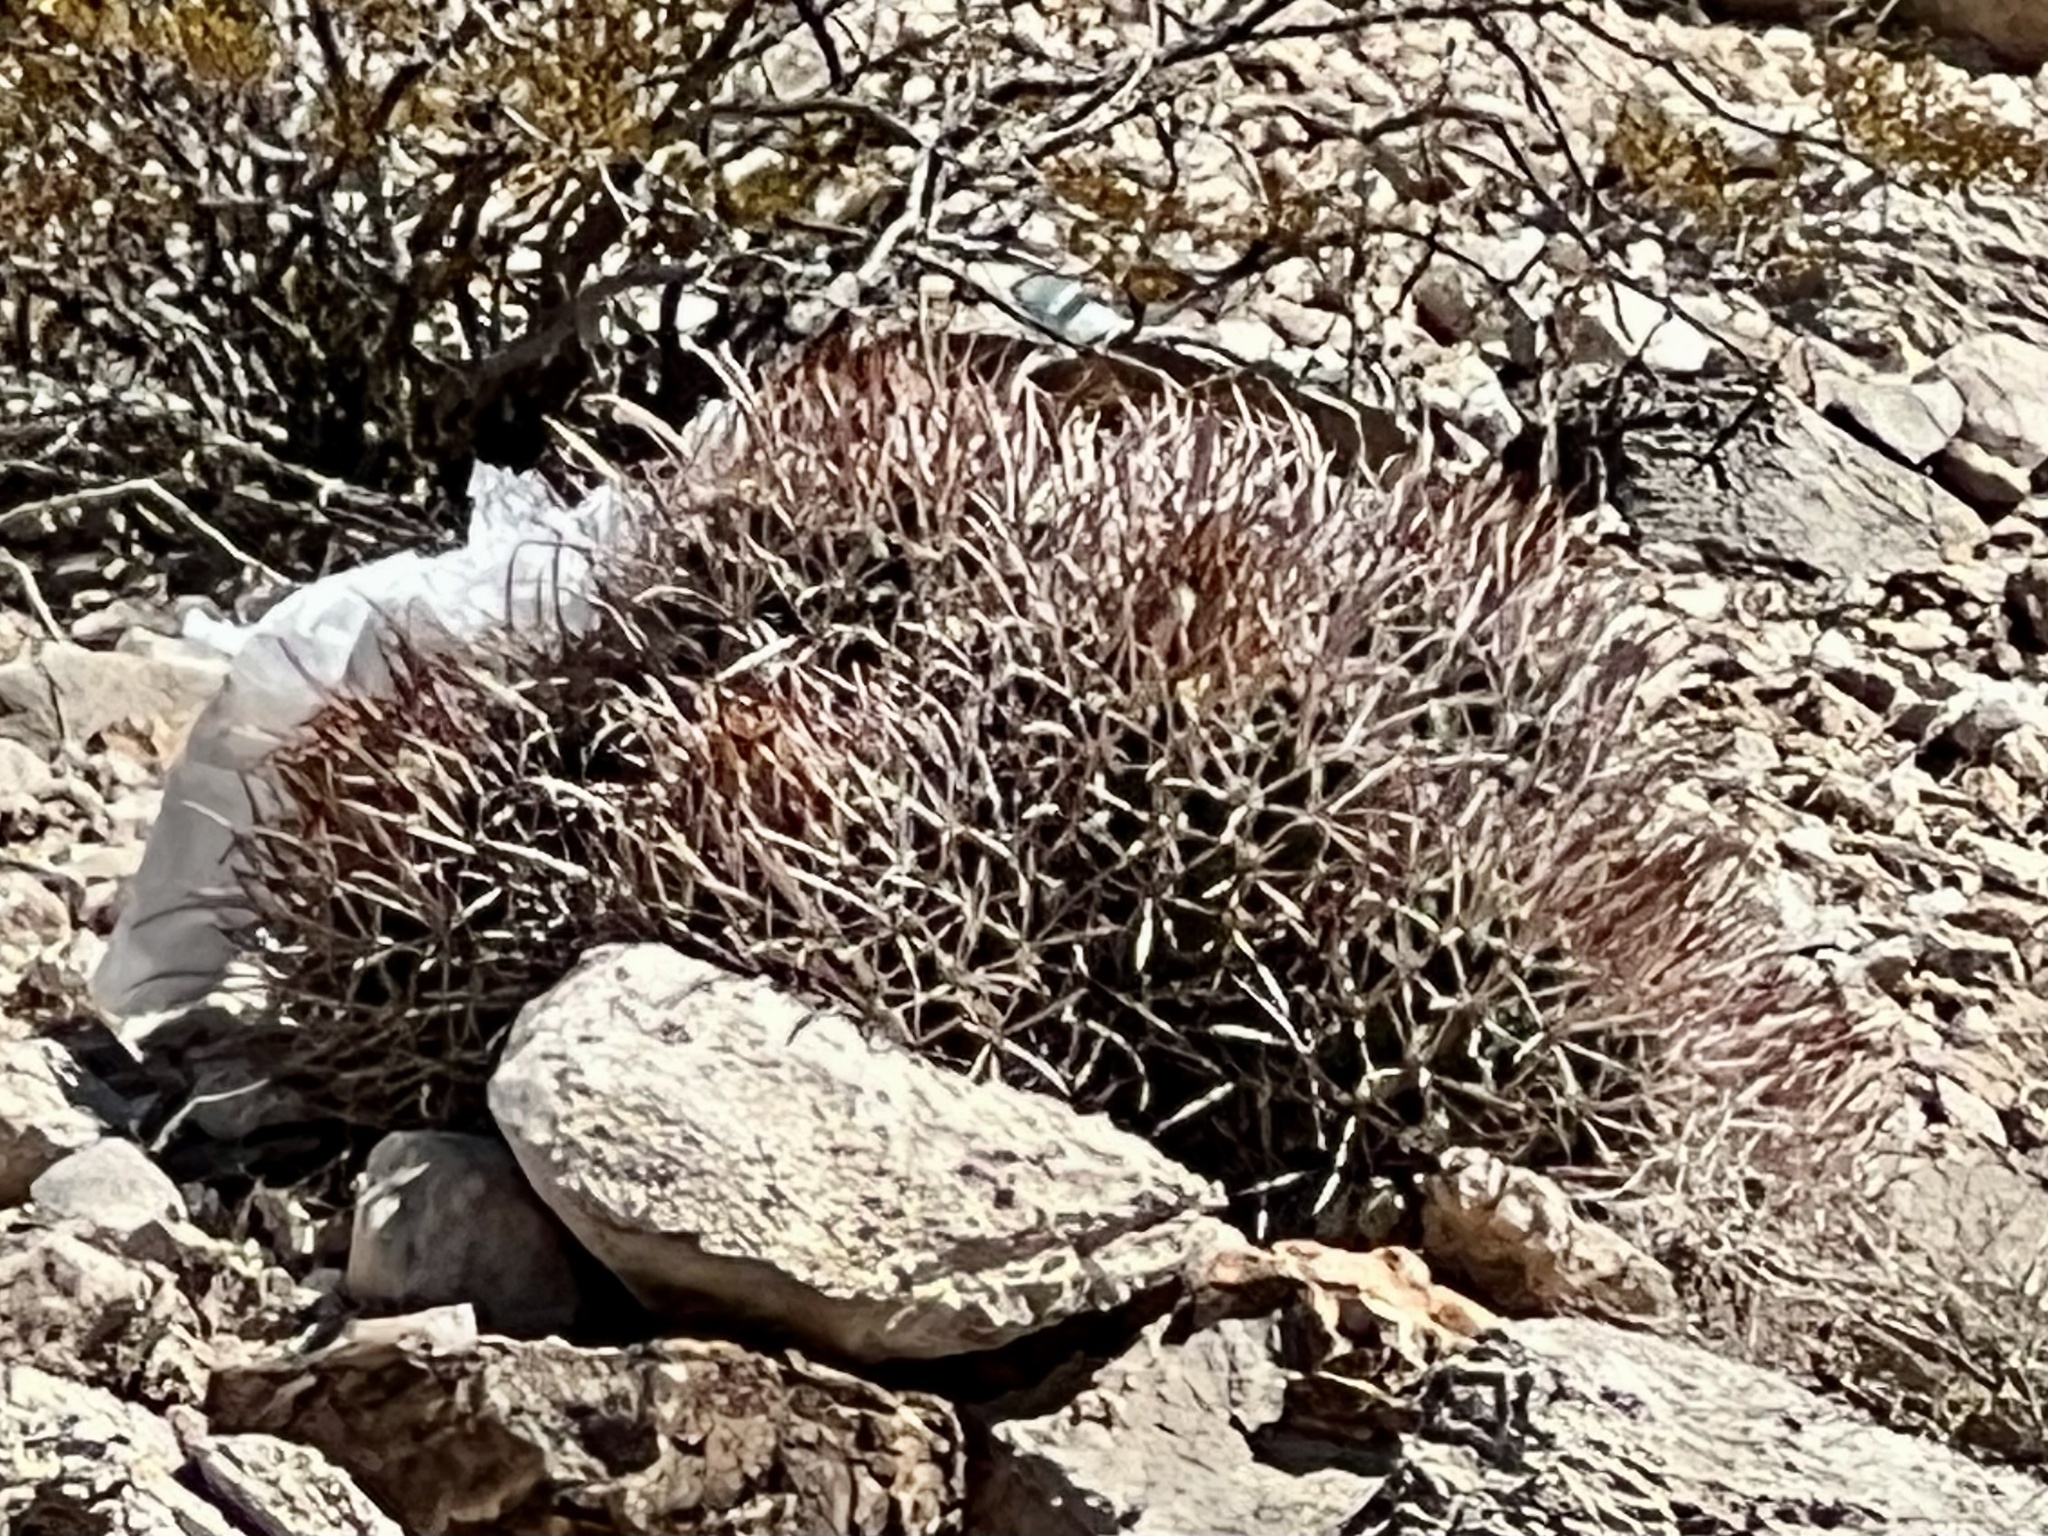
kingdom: Plantae
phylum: Tracheophyta
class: Magnoliopsida
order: Caryophyllales
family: Cactaceae
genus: Echinocactus
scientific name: Echinocactus polycephalus
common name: Cottontop cactus
